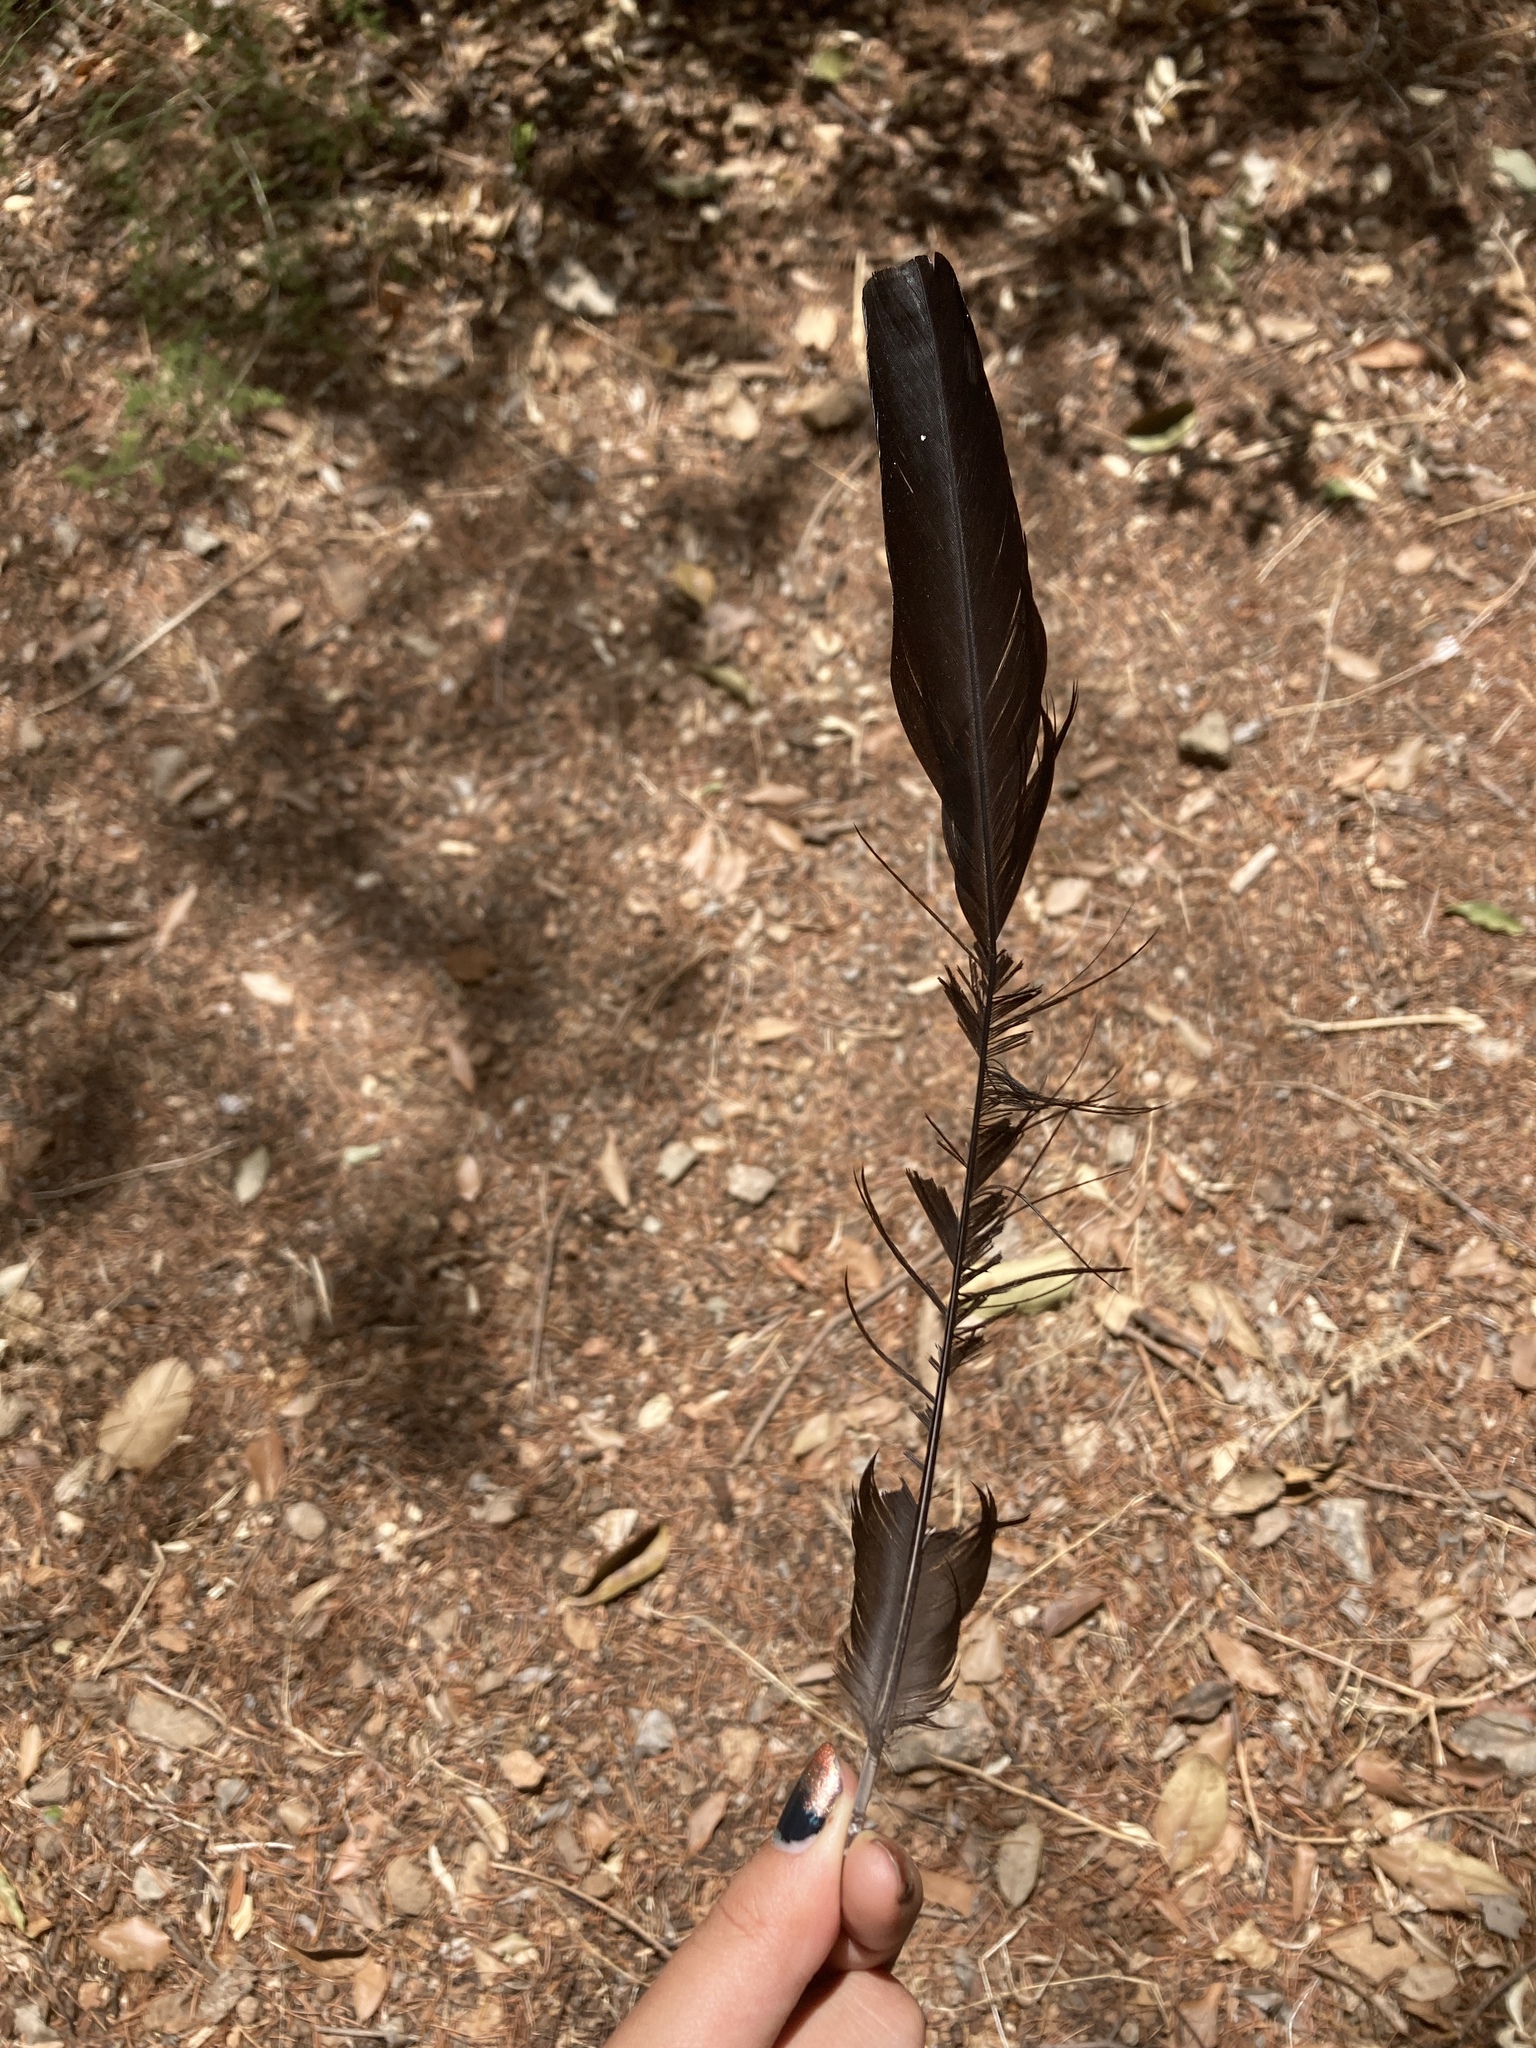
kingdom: Animalia
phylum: Chordata
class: Aves
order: Passeriformes
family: Corvidae
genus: Pica
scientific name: Pica pica
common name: Eurasian magpie
